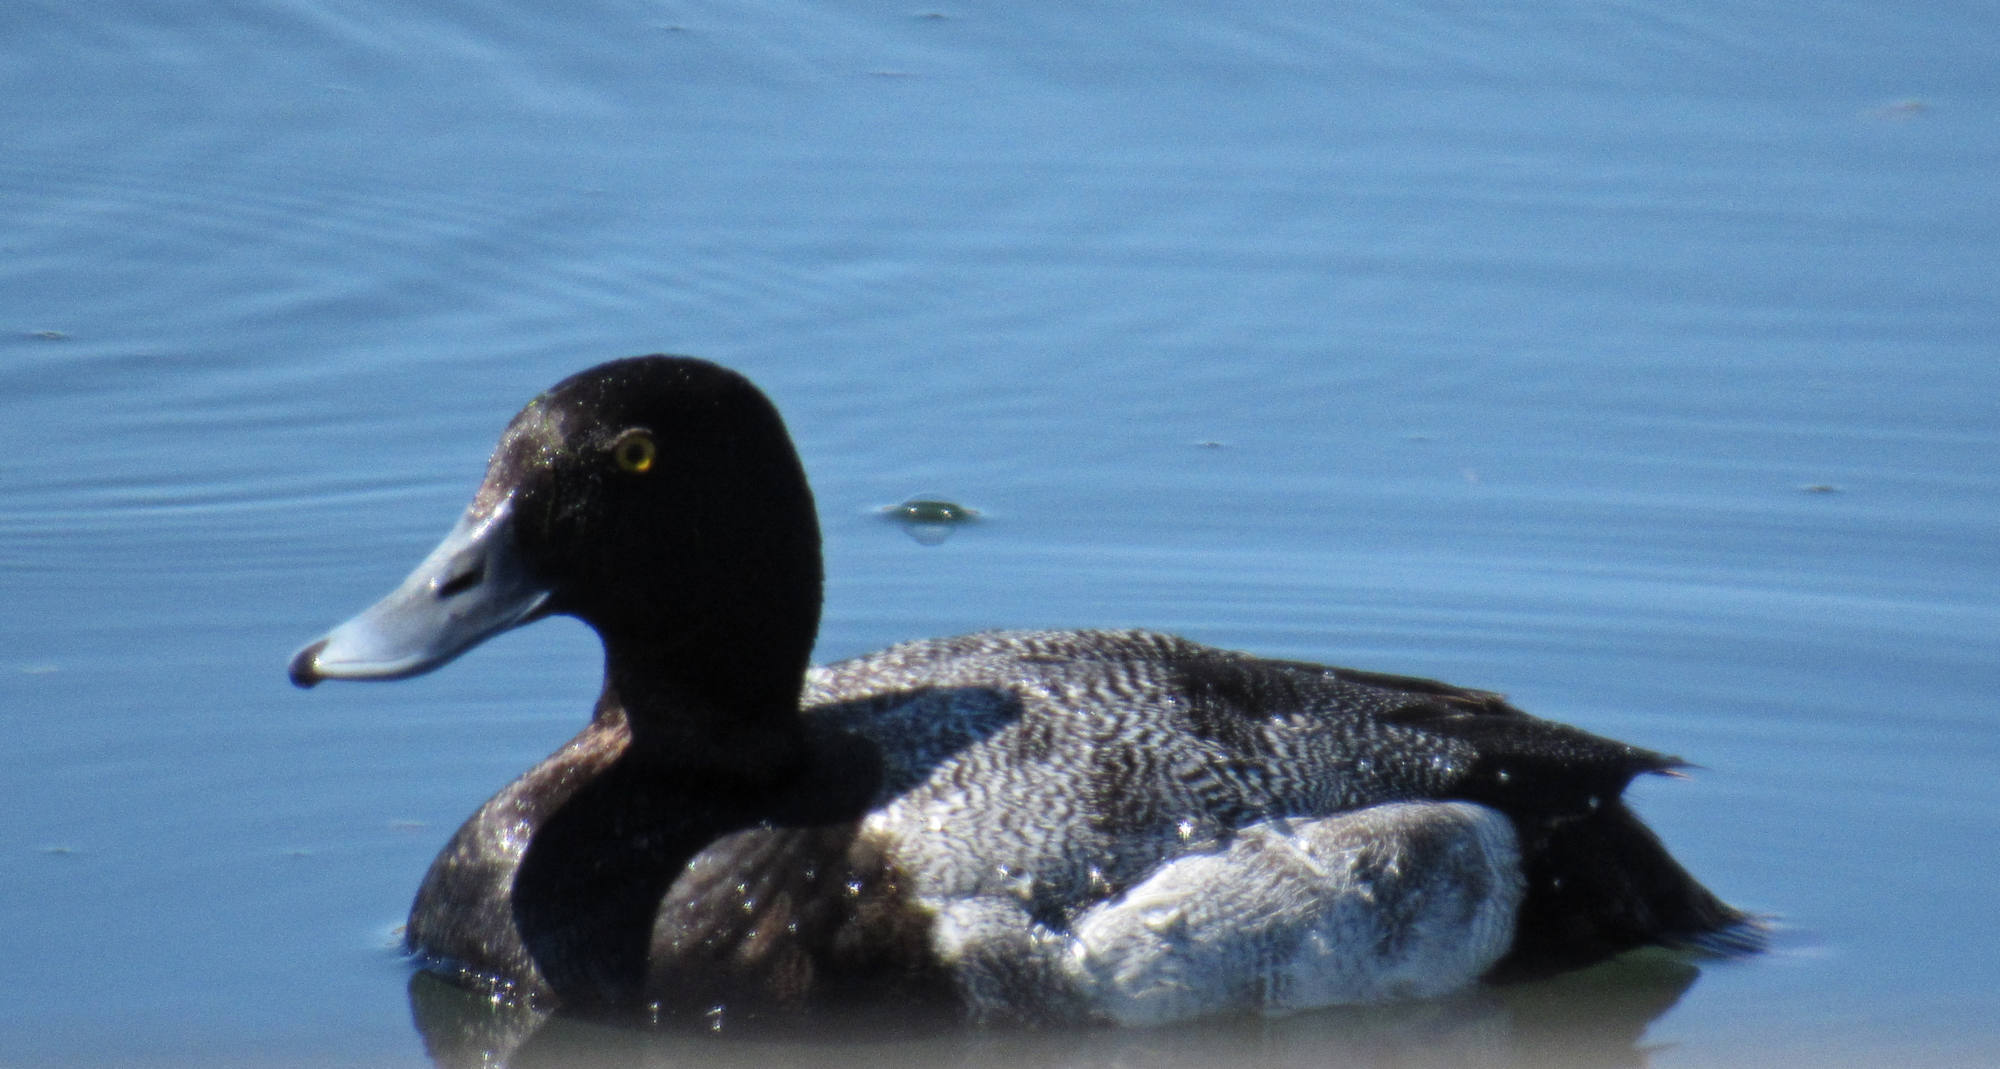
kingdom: Animalia
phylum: Chordata
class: Aves
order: Anseriformes
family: Anatidae
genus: Aythya
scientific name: Aythya marila
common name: Greater scaup
